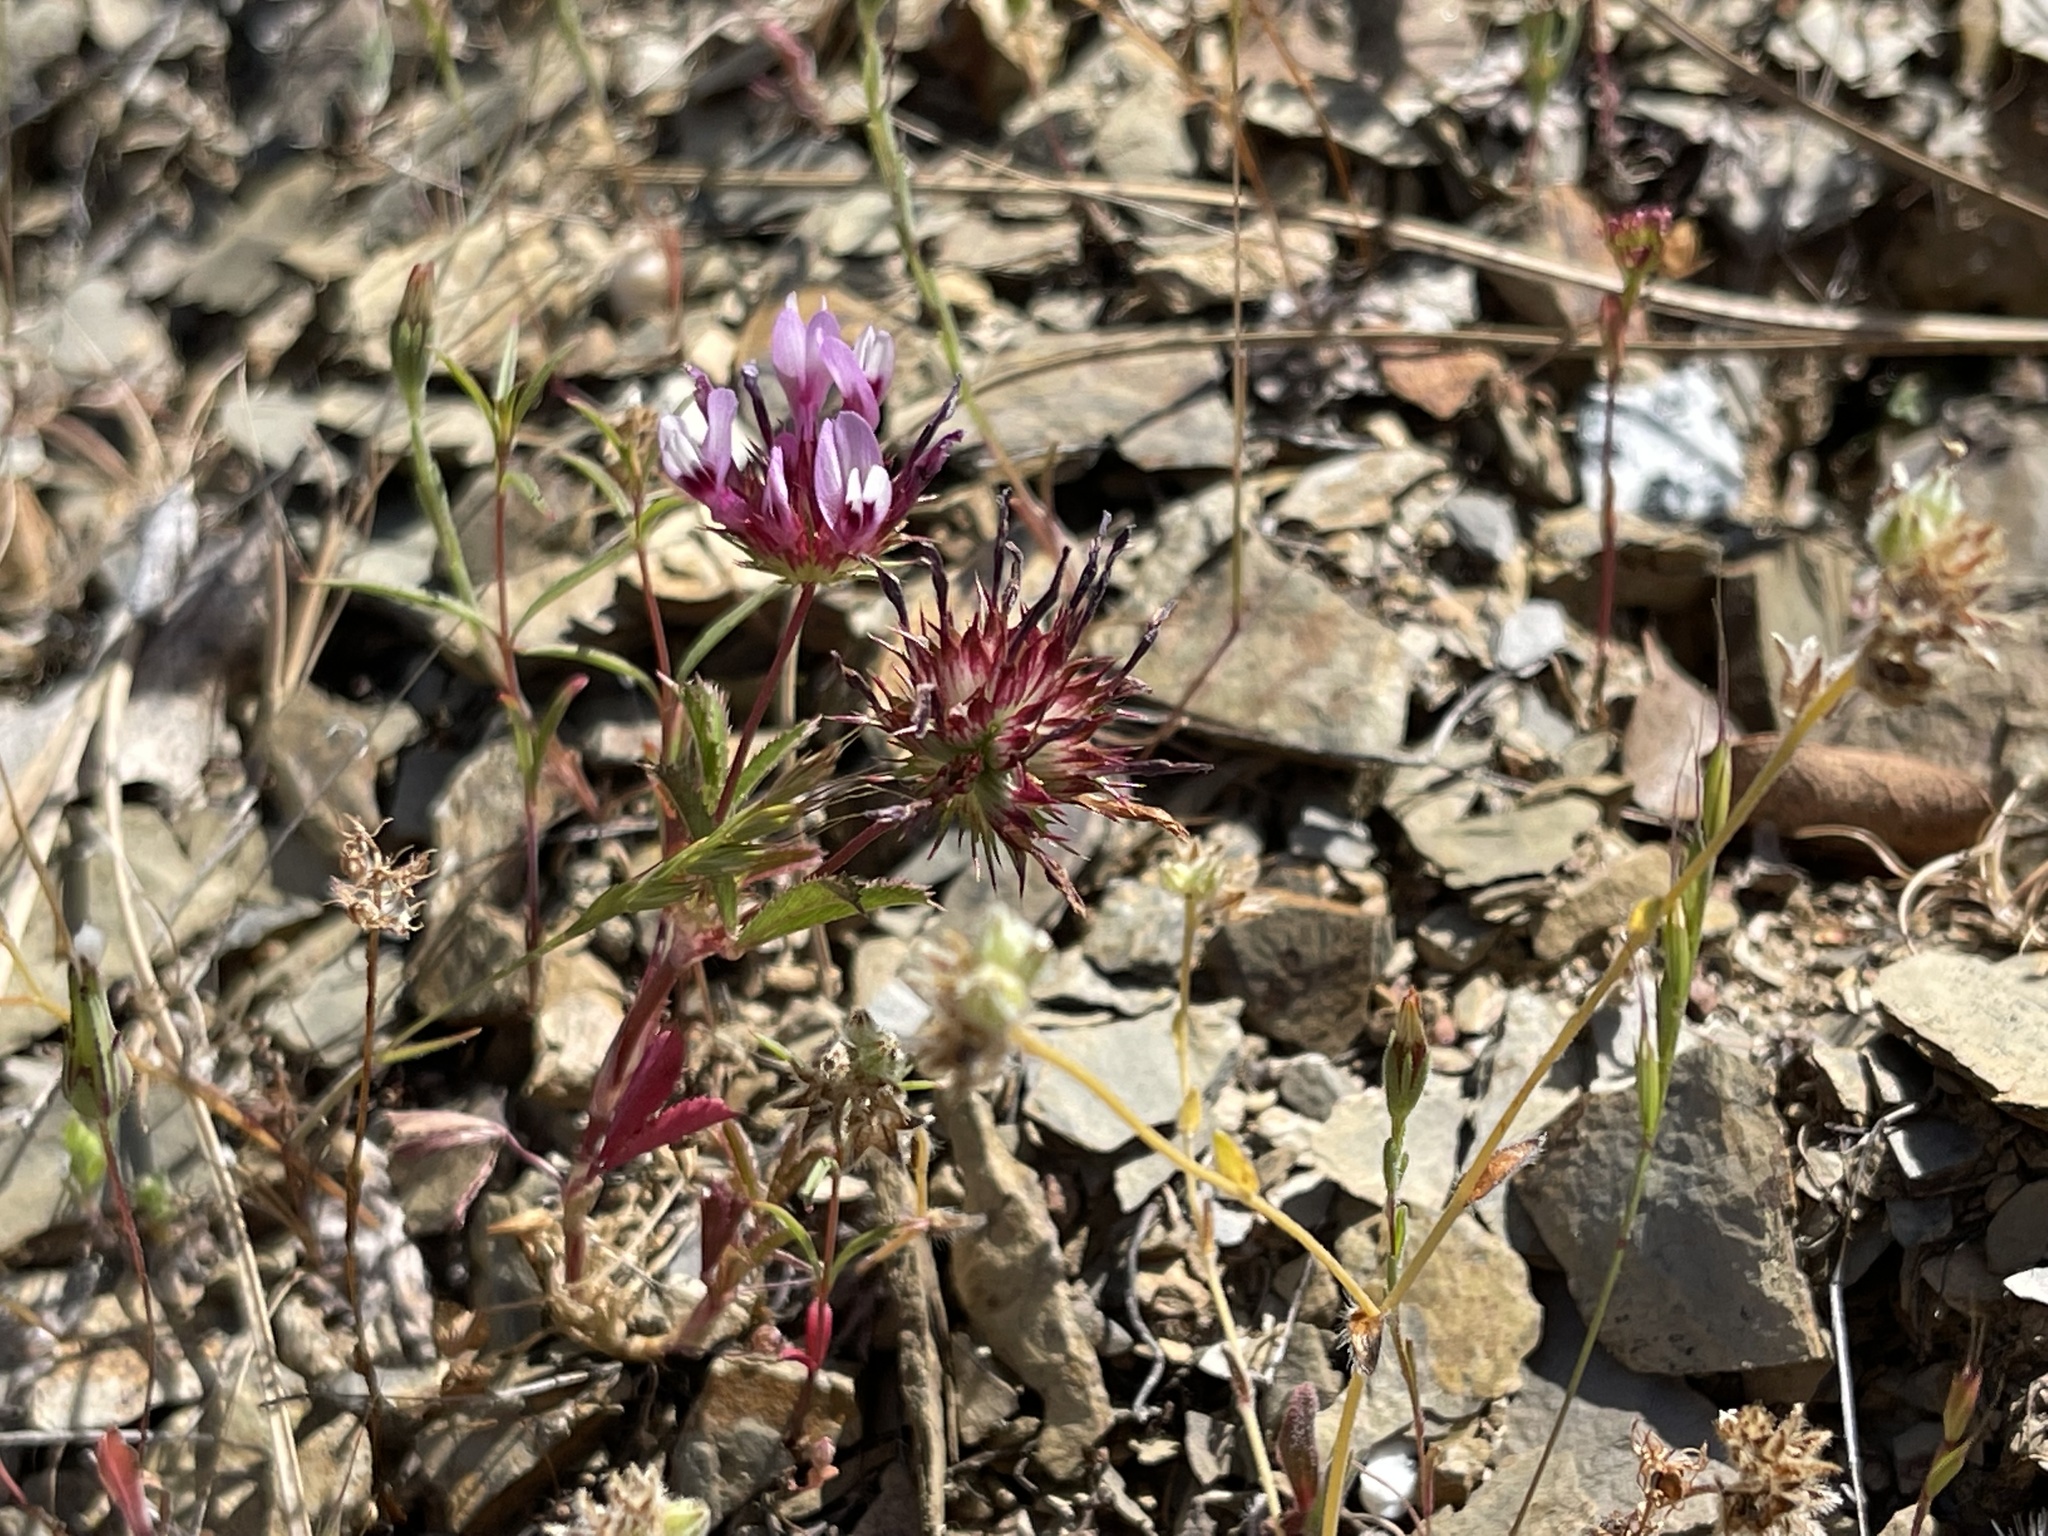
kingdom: Plantae
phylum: Tracheophyta
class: Magnoliopsida
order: Fabales
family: Fabaceae
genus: Trifolium
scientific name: Trifolium willdenovii
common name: Tomcat clover
